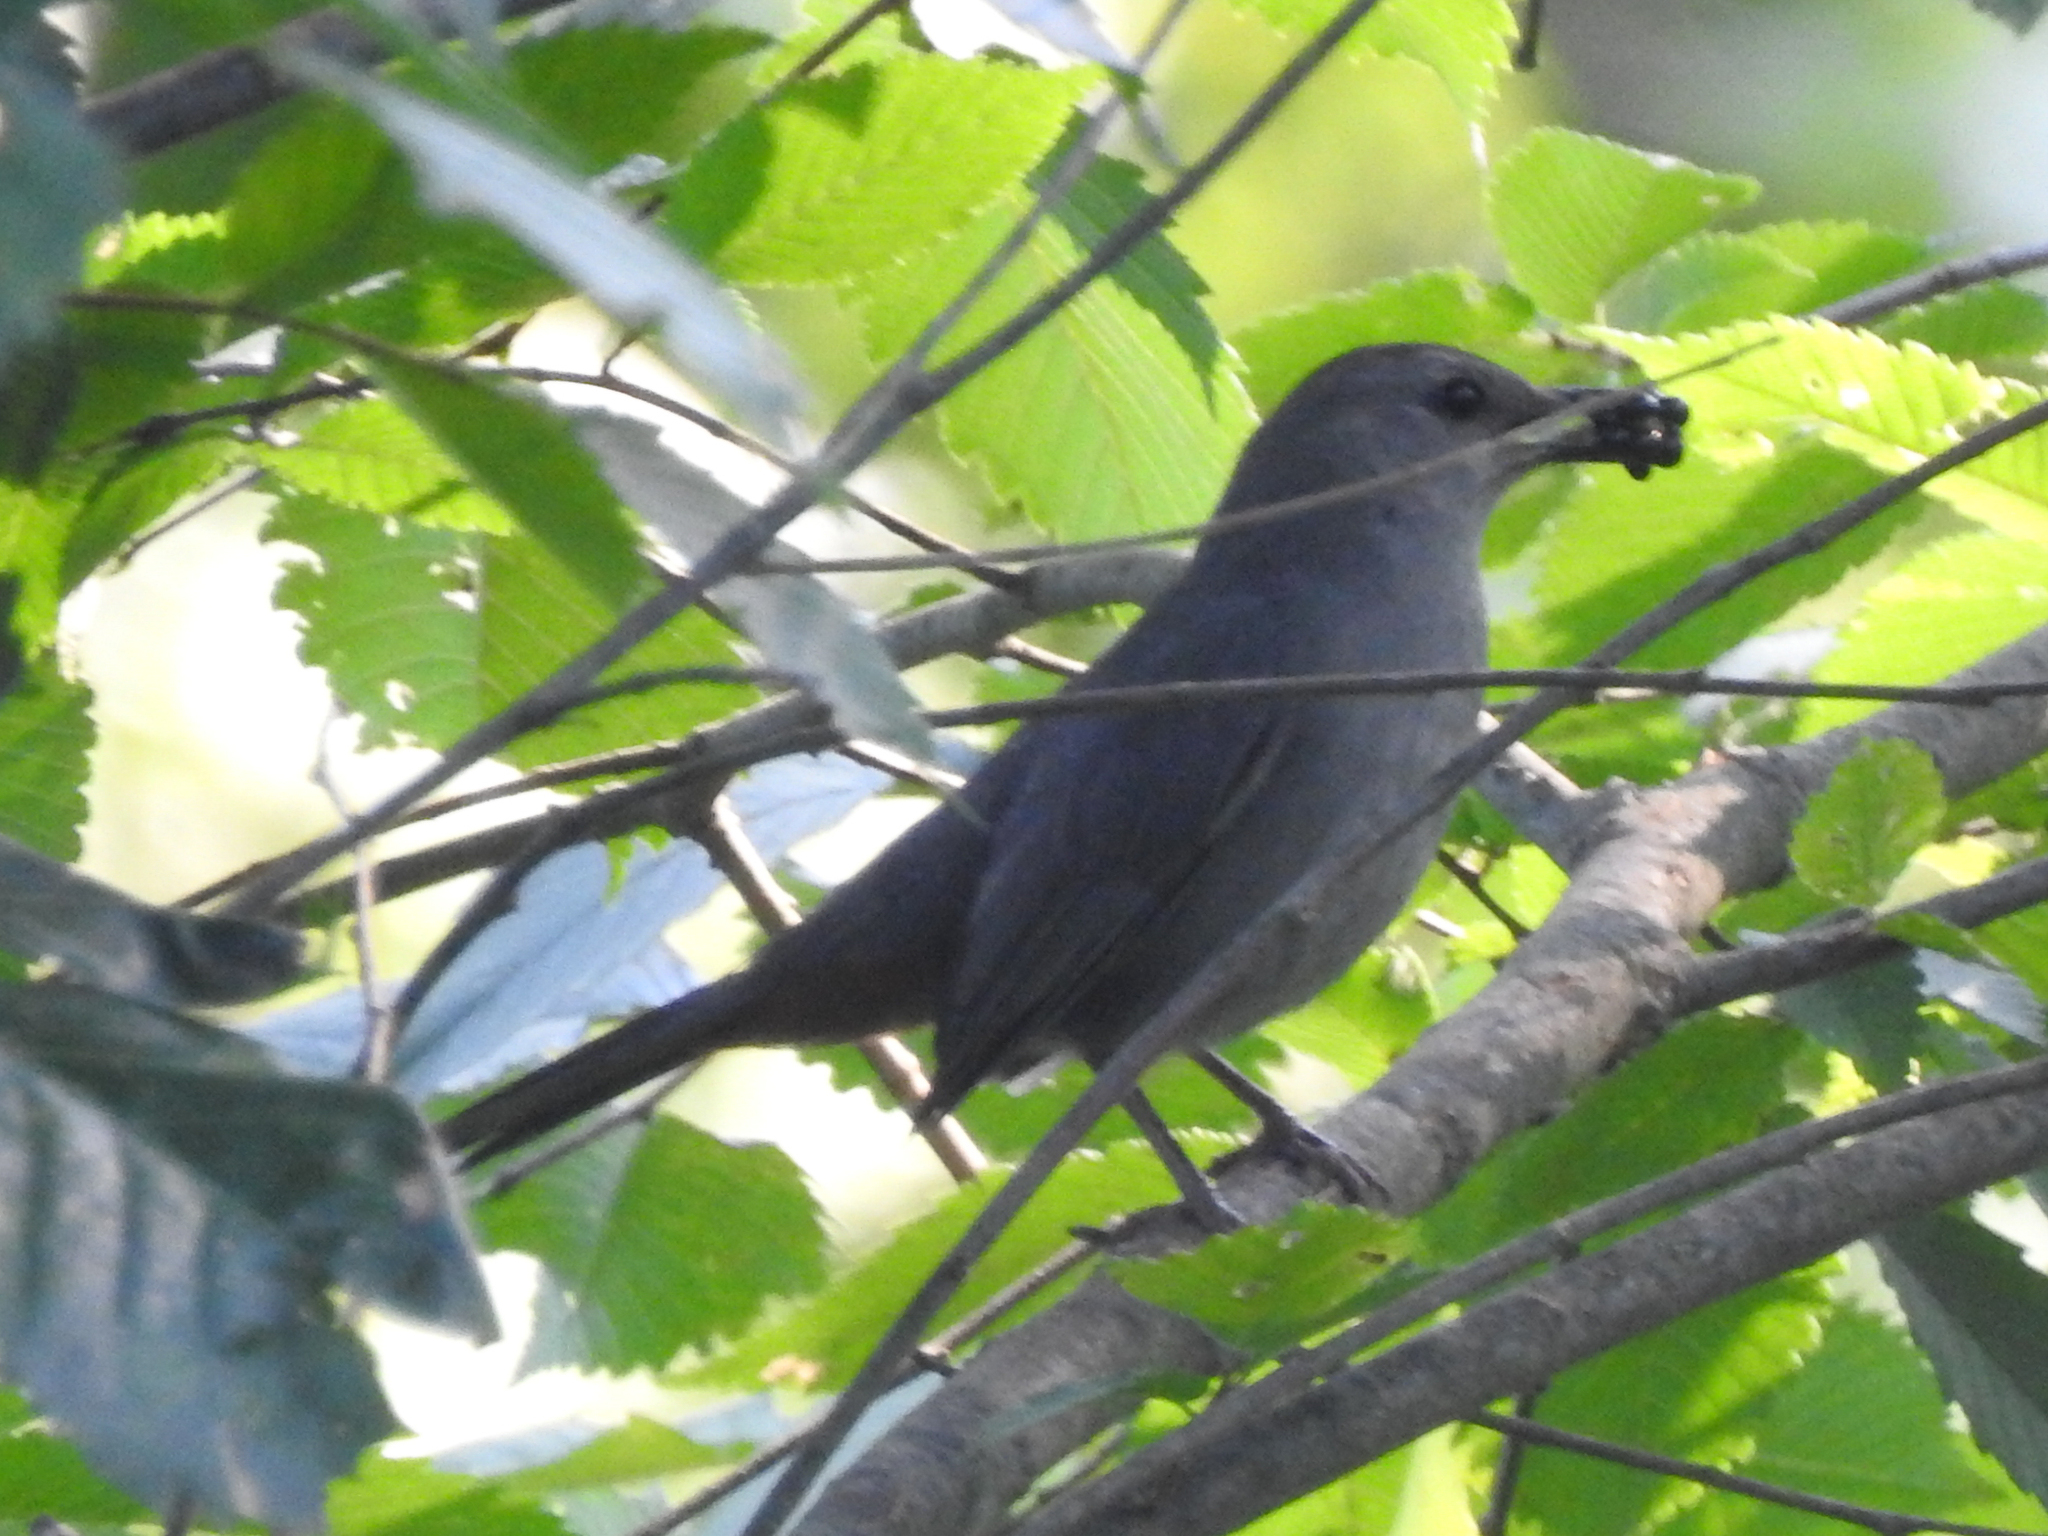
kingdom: Animalia
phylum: Chordata
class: Aves
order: Passeriformes
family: Mimidae
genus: Dumetella
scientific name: Dumetella carolinensis
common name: Gray catbird
